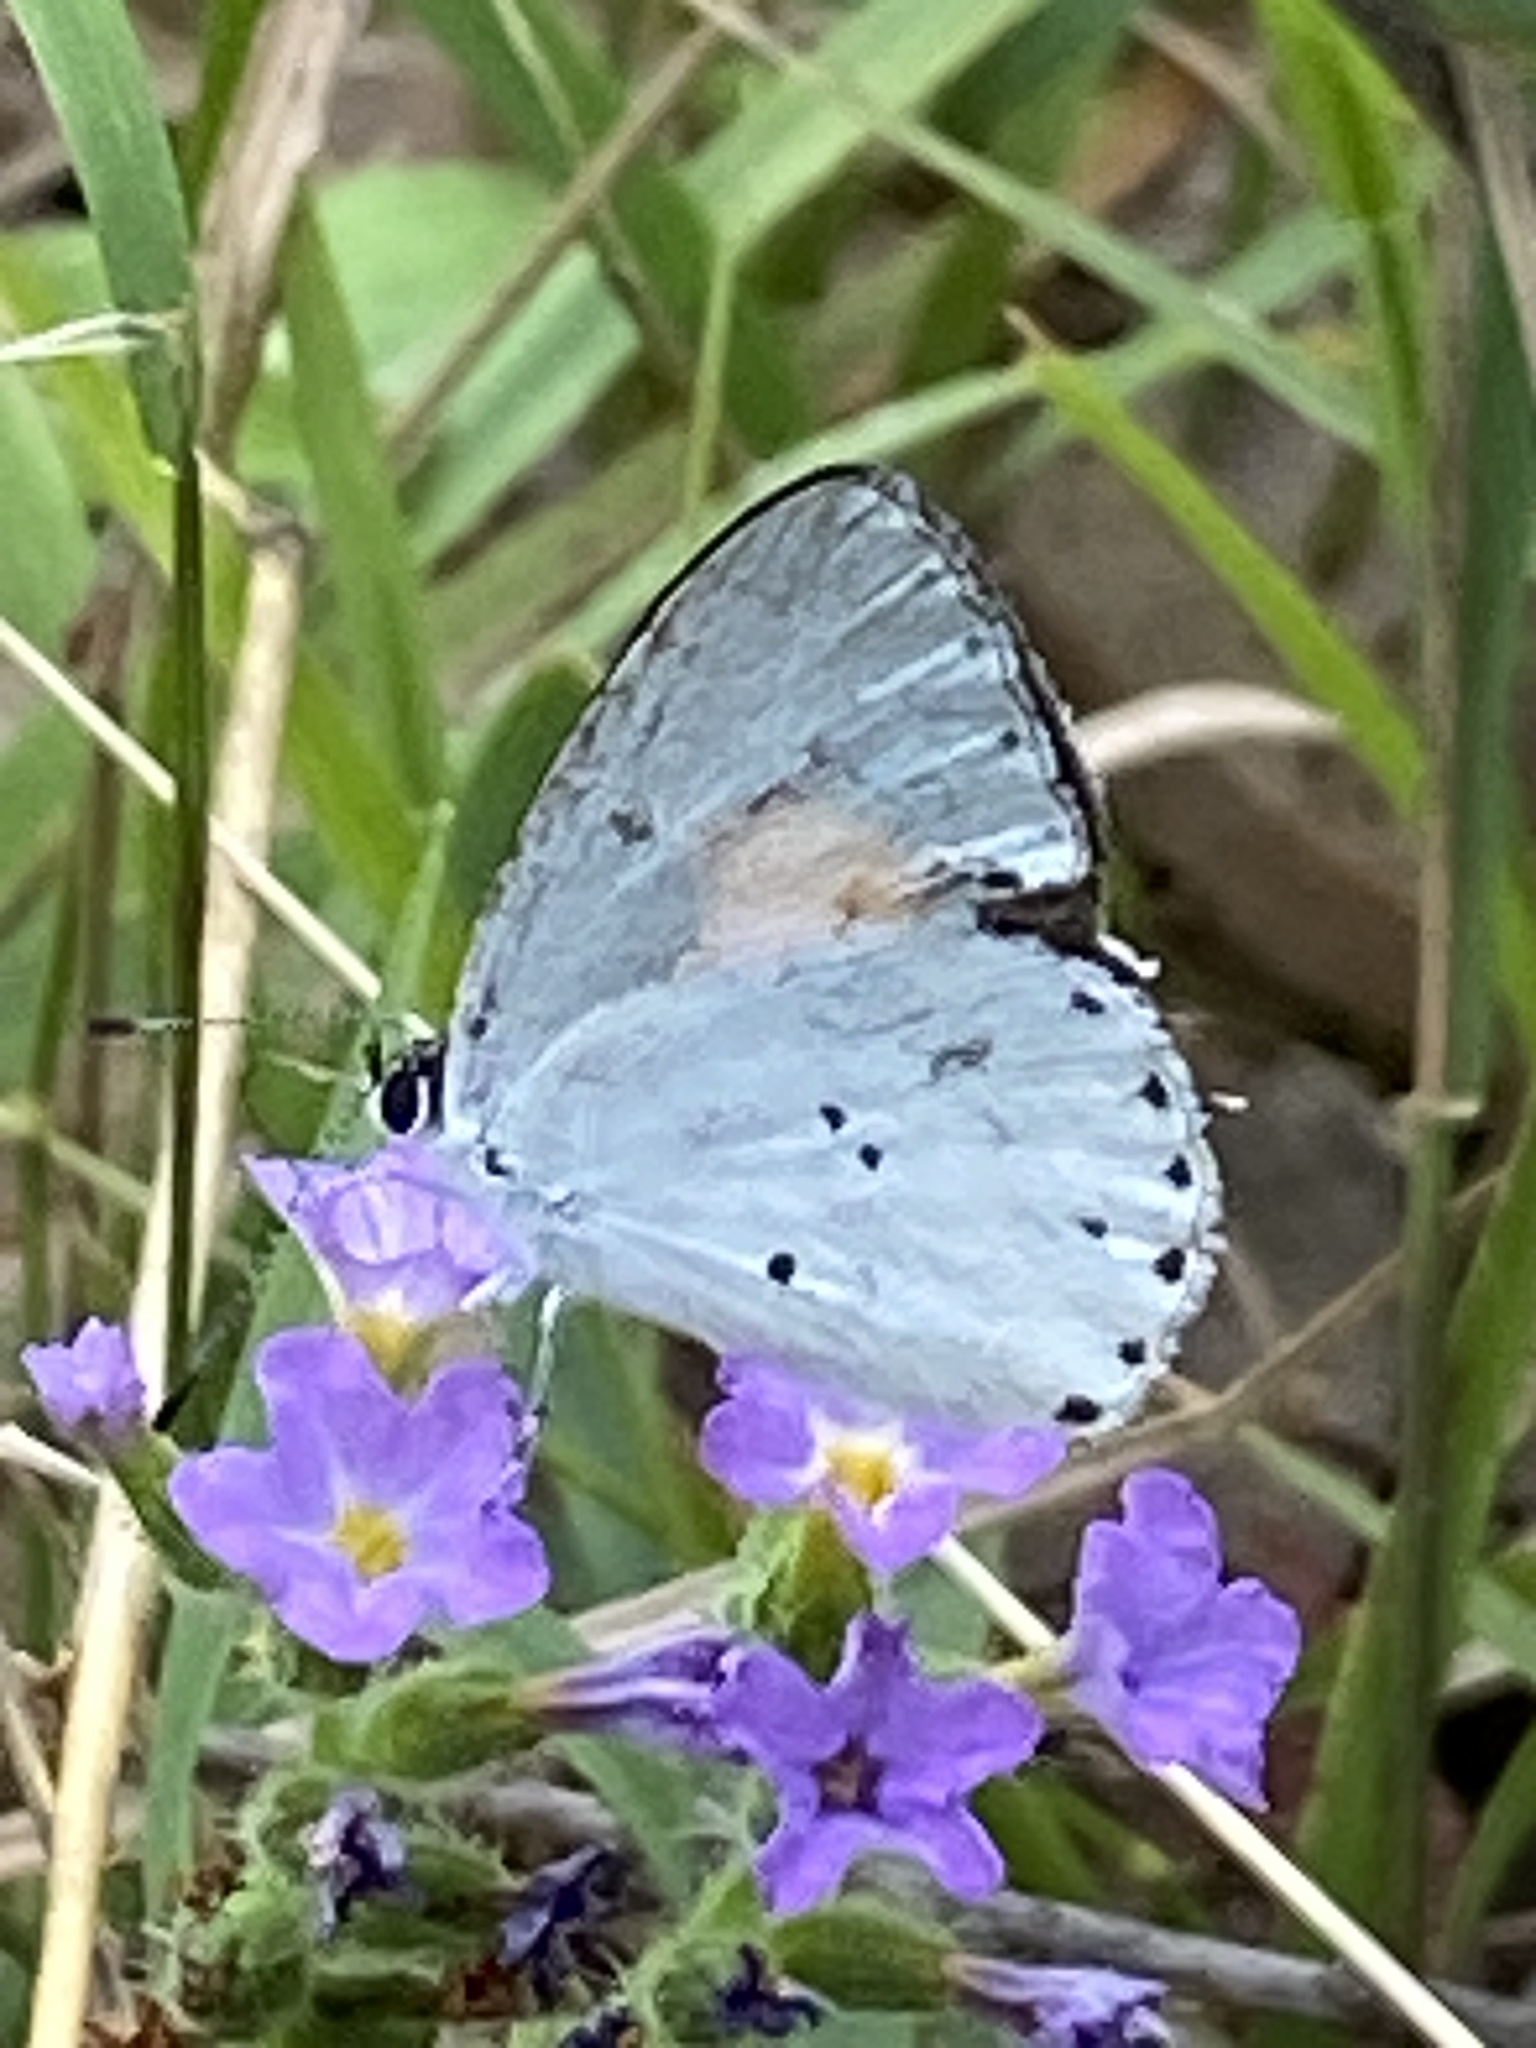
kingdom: Animalia
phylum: Arthropoda
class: Insecta
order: Lepidoptera
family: Lycaenidae
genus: Candalides
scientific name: Candalides xanthospilos
